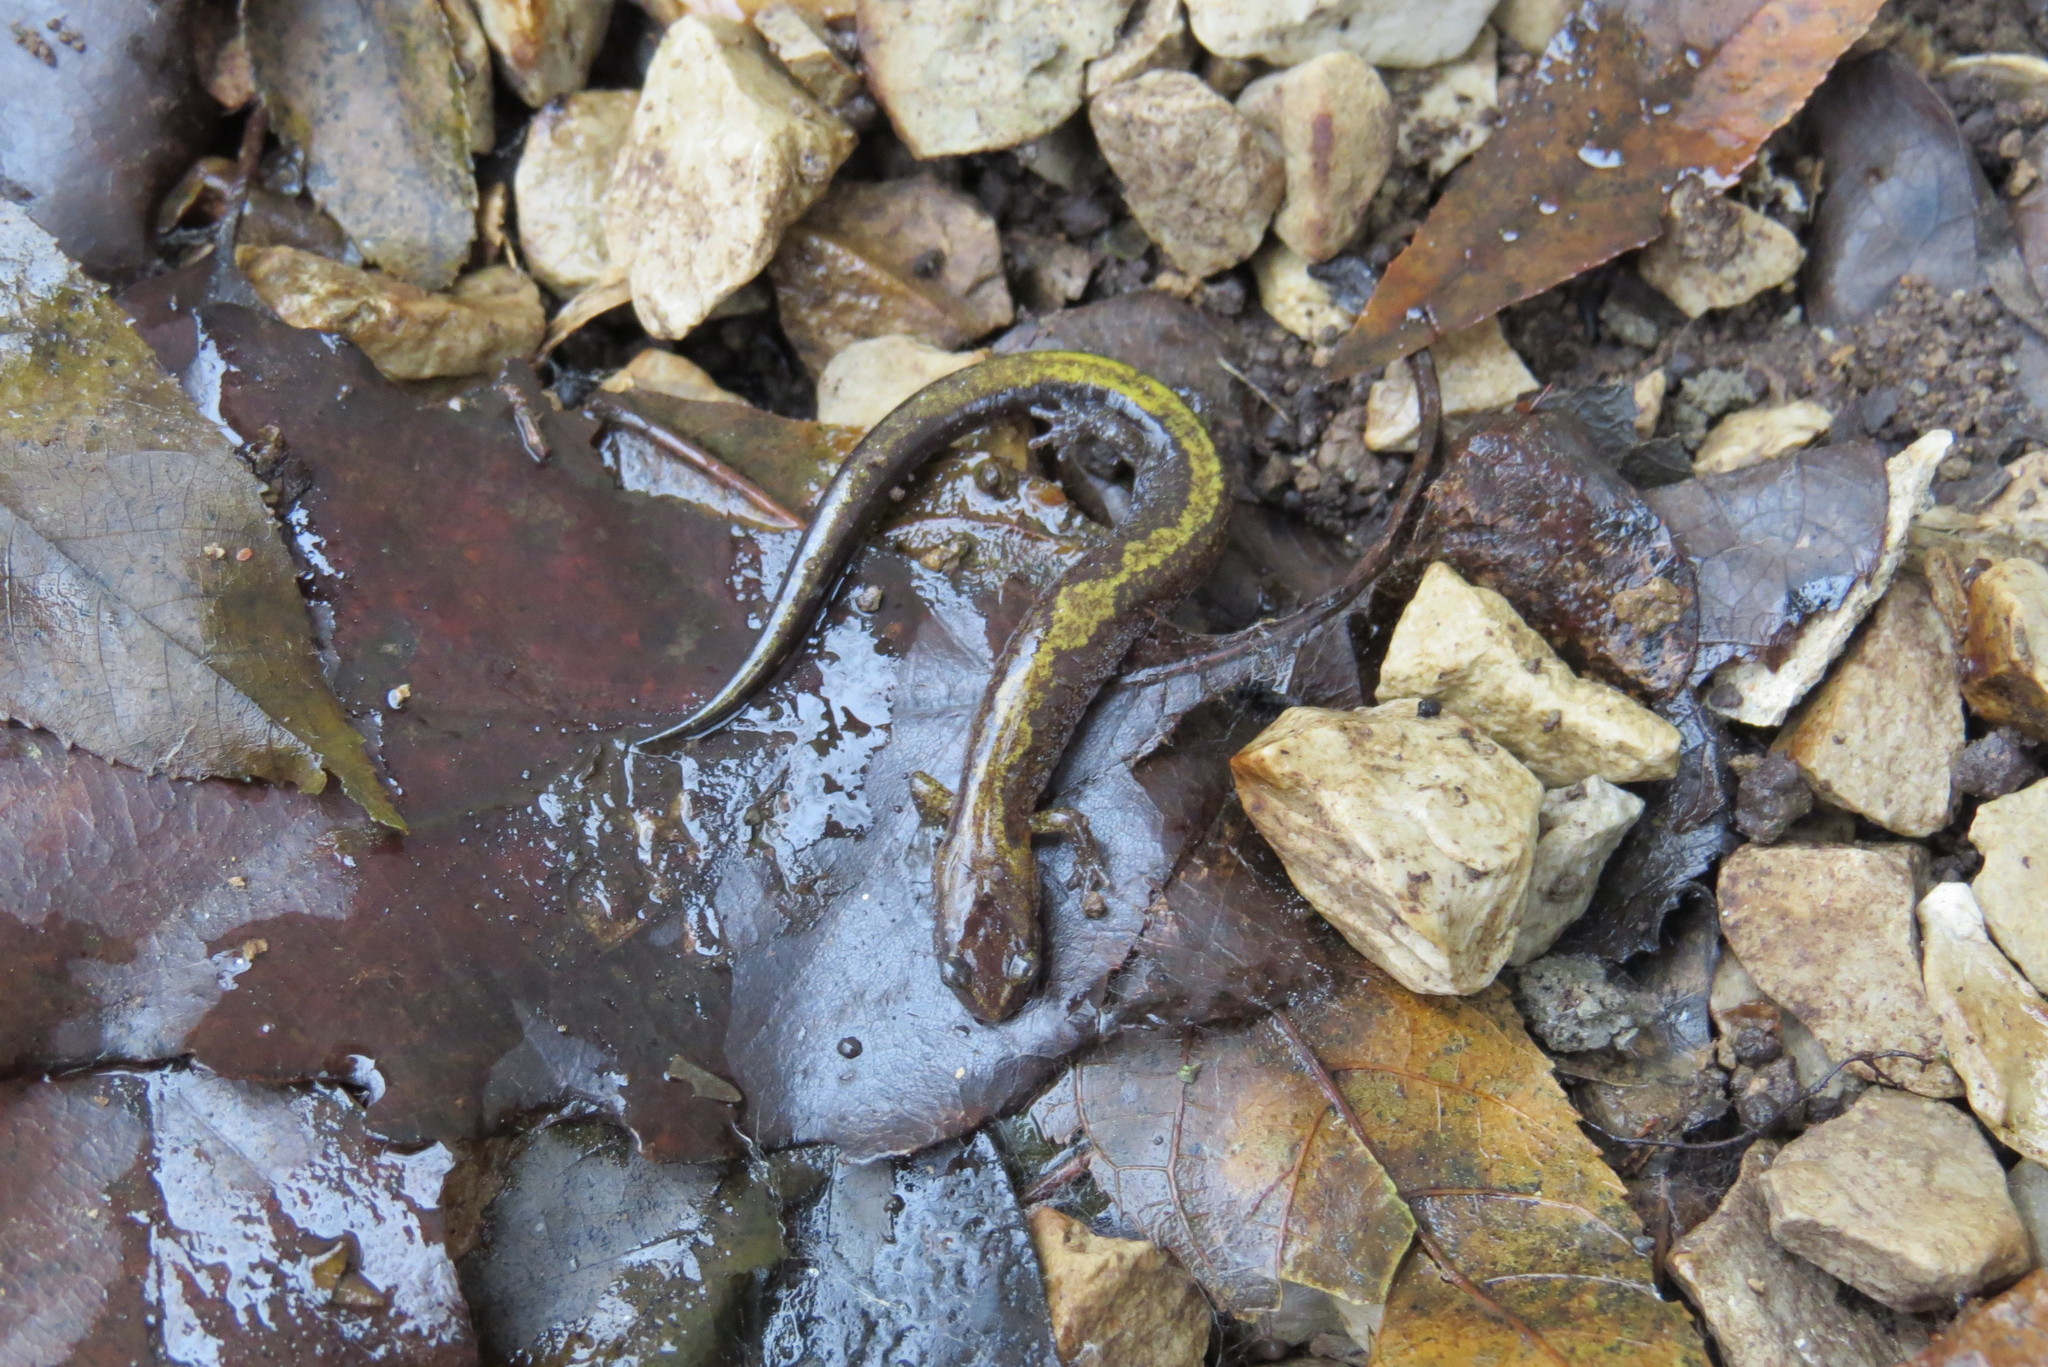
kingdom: Animalia
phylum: Chordata
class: Amphibia
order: Caudata
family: Plethodontidae
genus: Plethodon
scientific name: Plethodon dorsalis
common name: Northern zigzag salamander
